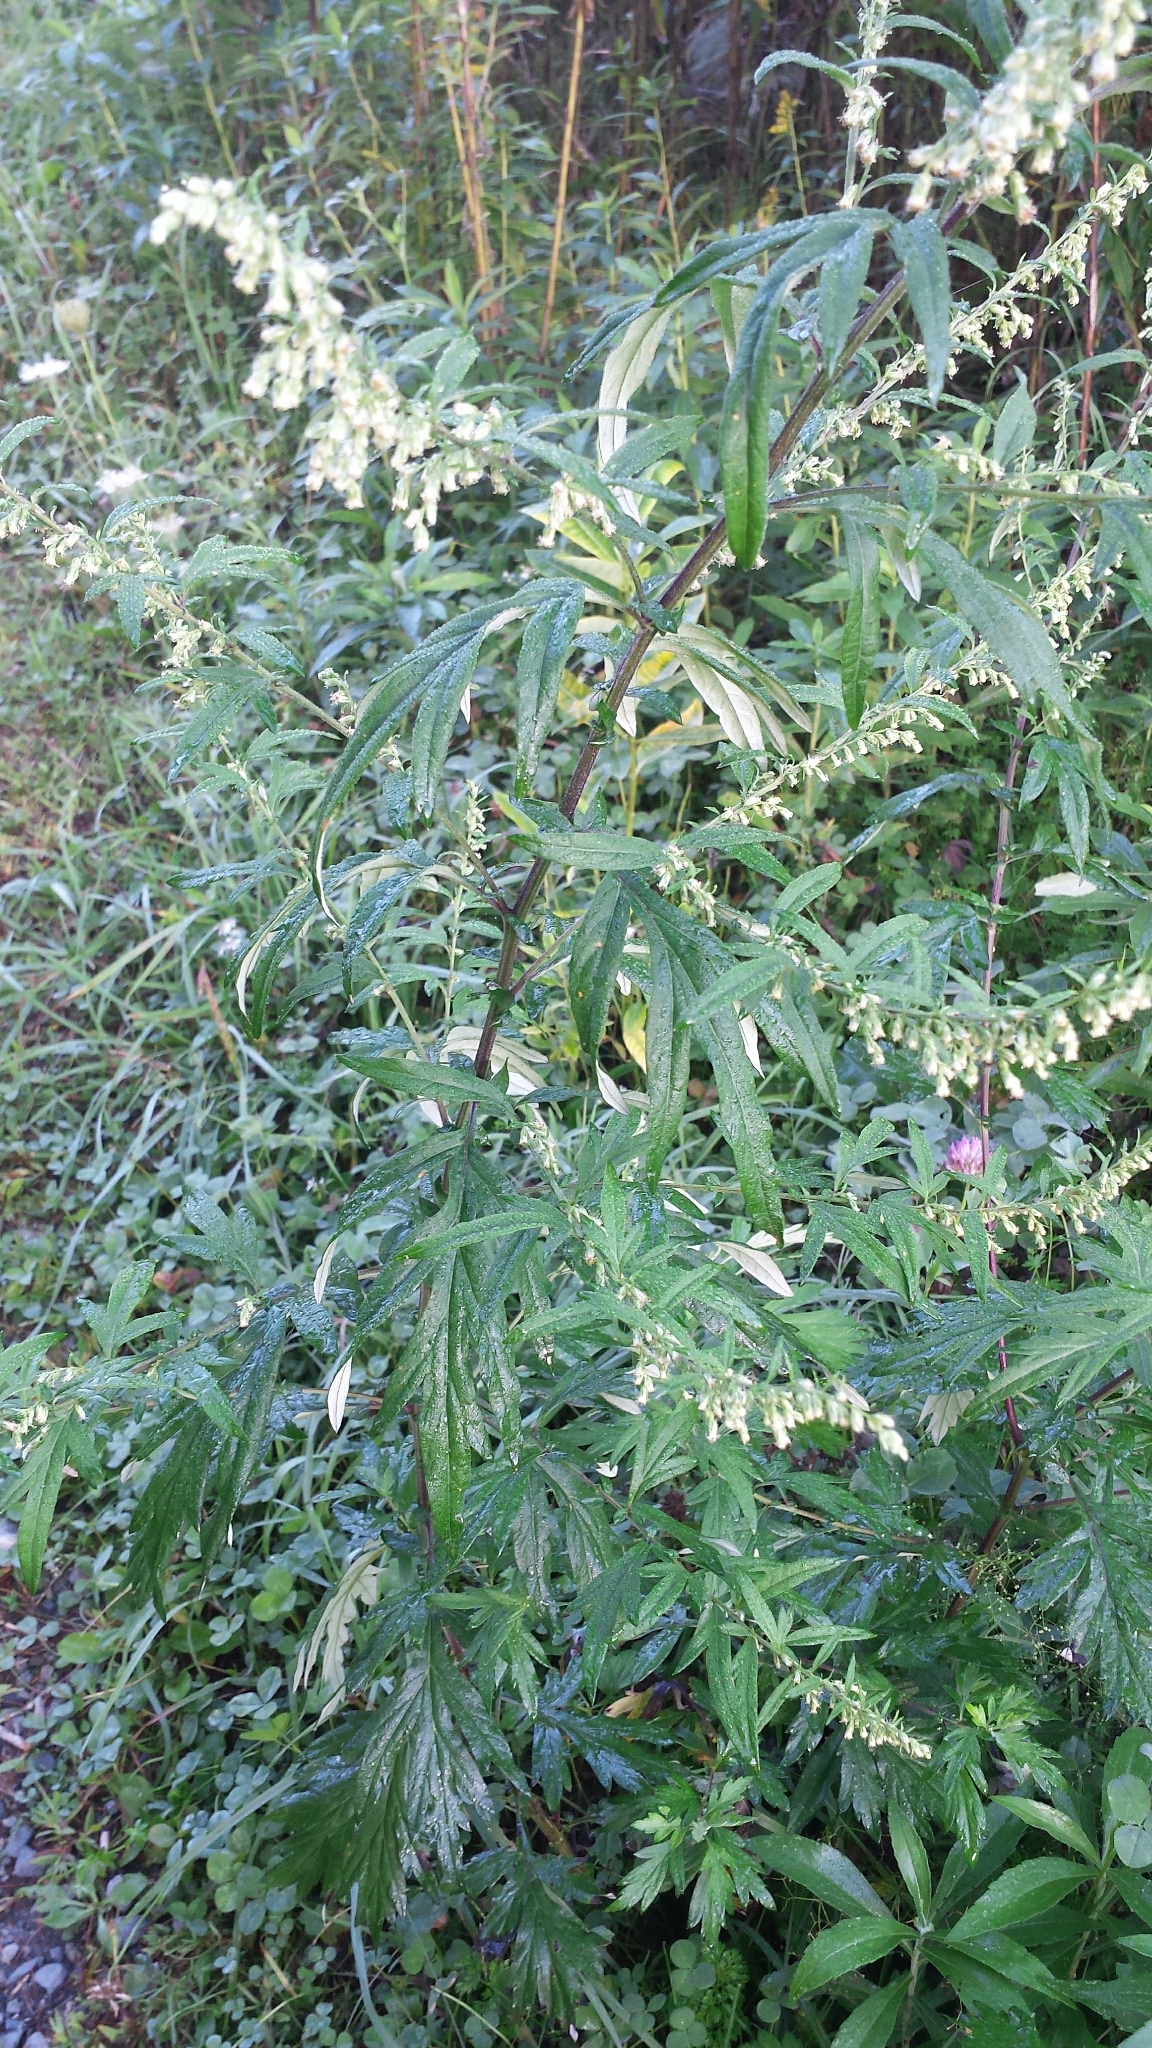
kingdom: Plantae
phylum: Tracheophyta
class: Magnoliopsida
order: Asterales
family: Asteraceae
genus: Artemisia
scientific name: Artemisia vulgaris
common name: Mugwort
